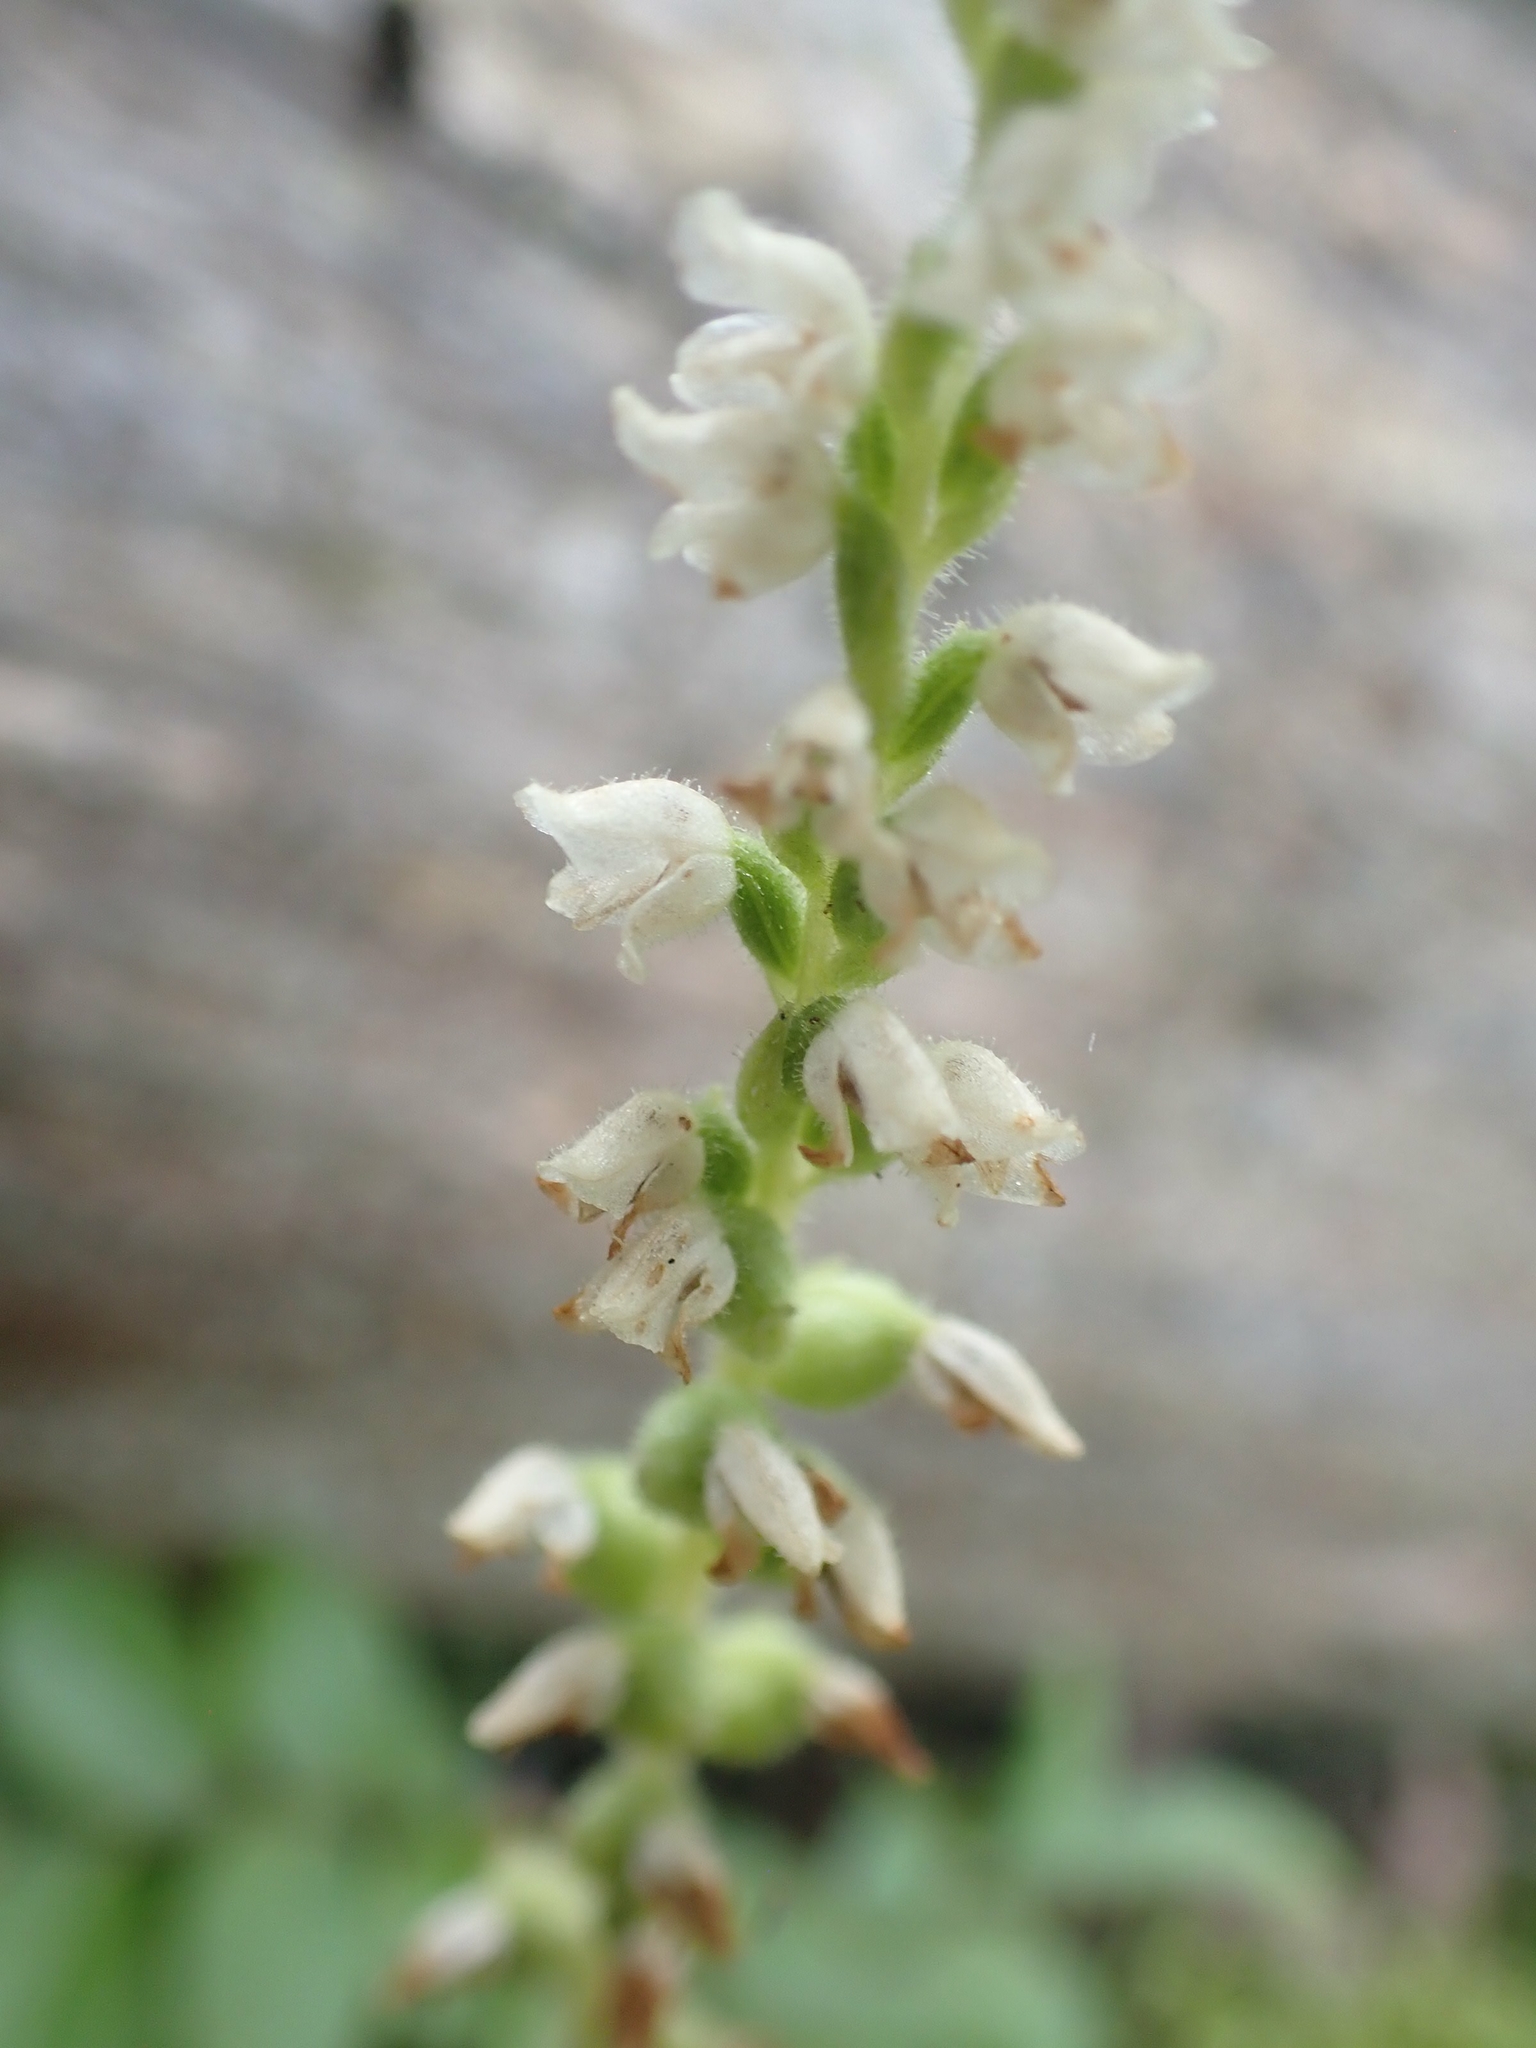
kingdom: Plantae
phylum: Tracheophyta
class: Liliopsida
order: Asparagales
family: Orchidaceae
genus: Goodyera
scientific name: Goodyera tesselata
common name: Checkered rattlesnake-plantain
